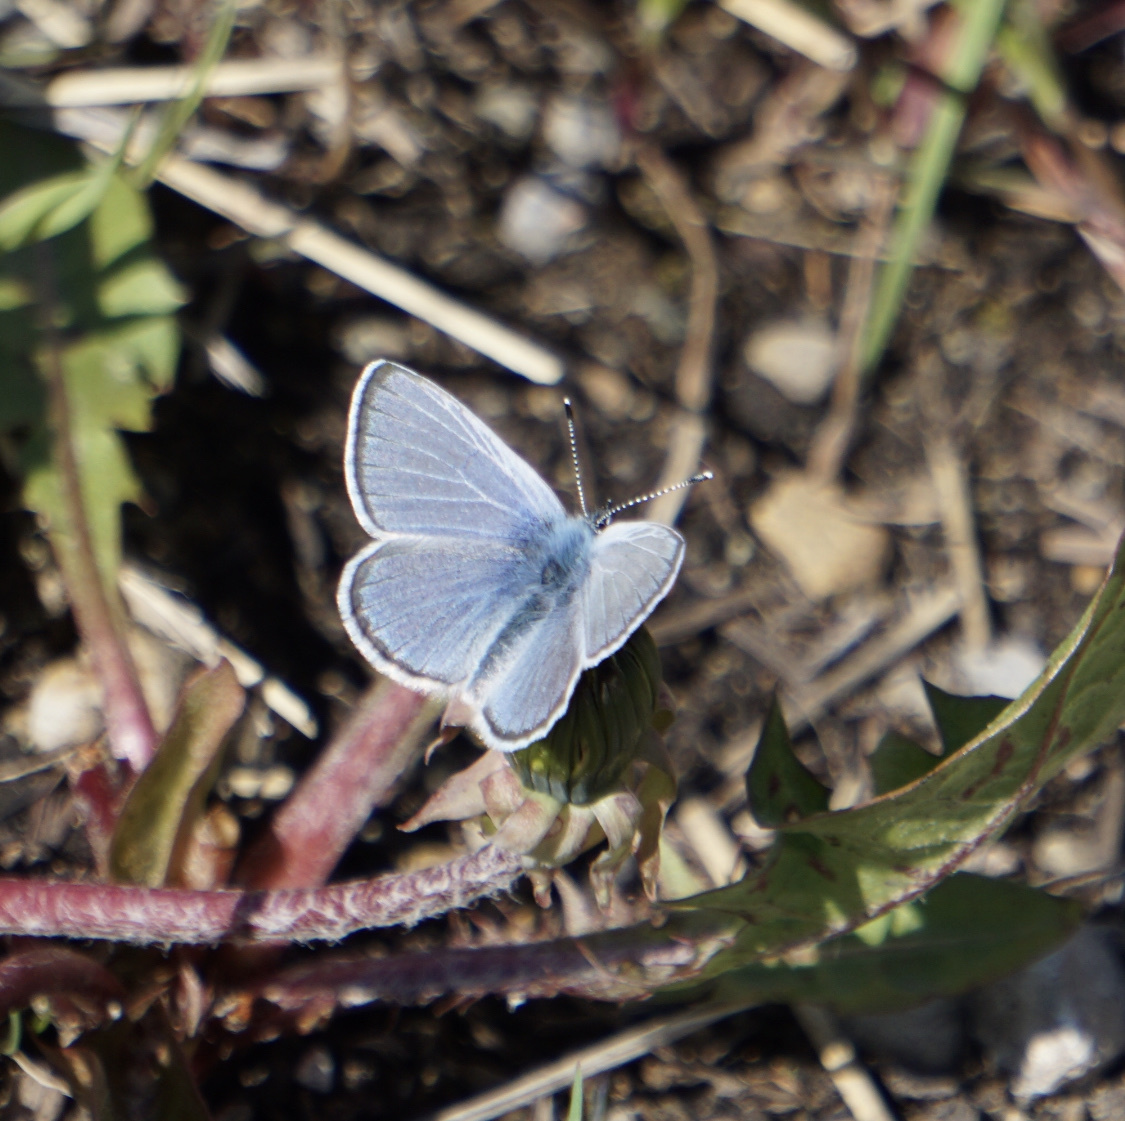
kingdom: Animalia
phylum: Arthropoda
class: Insecta
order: Lepidoptera
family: Lycaenidae
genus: Glaucopsyche
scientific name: Glaucopsyche lygdamus
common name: Silvery blue
